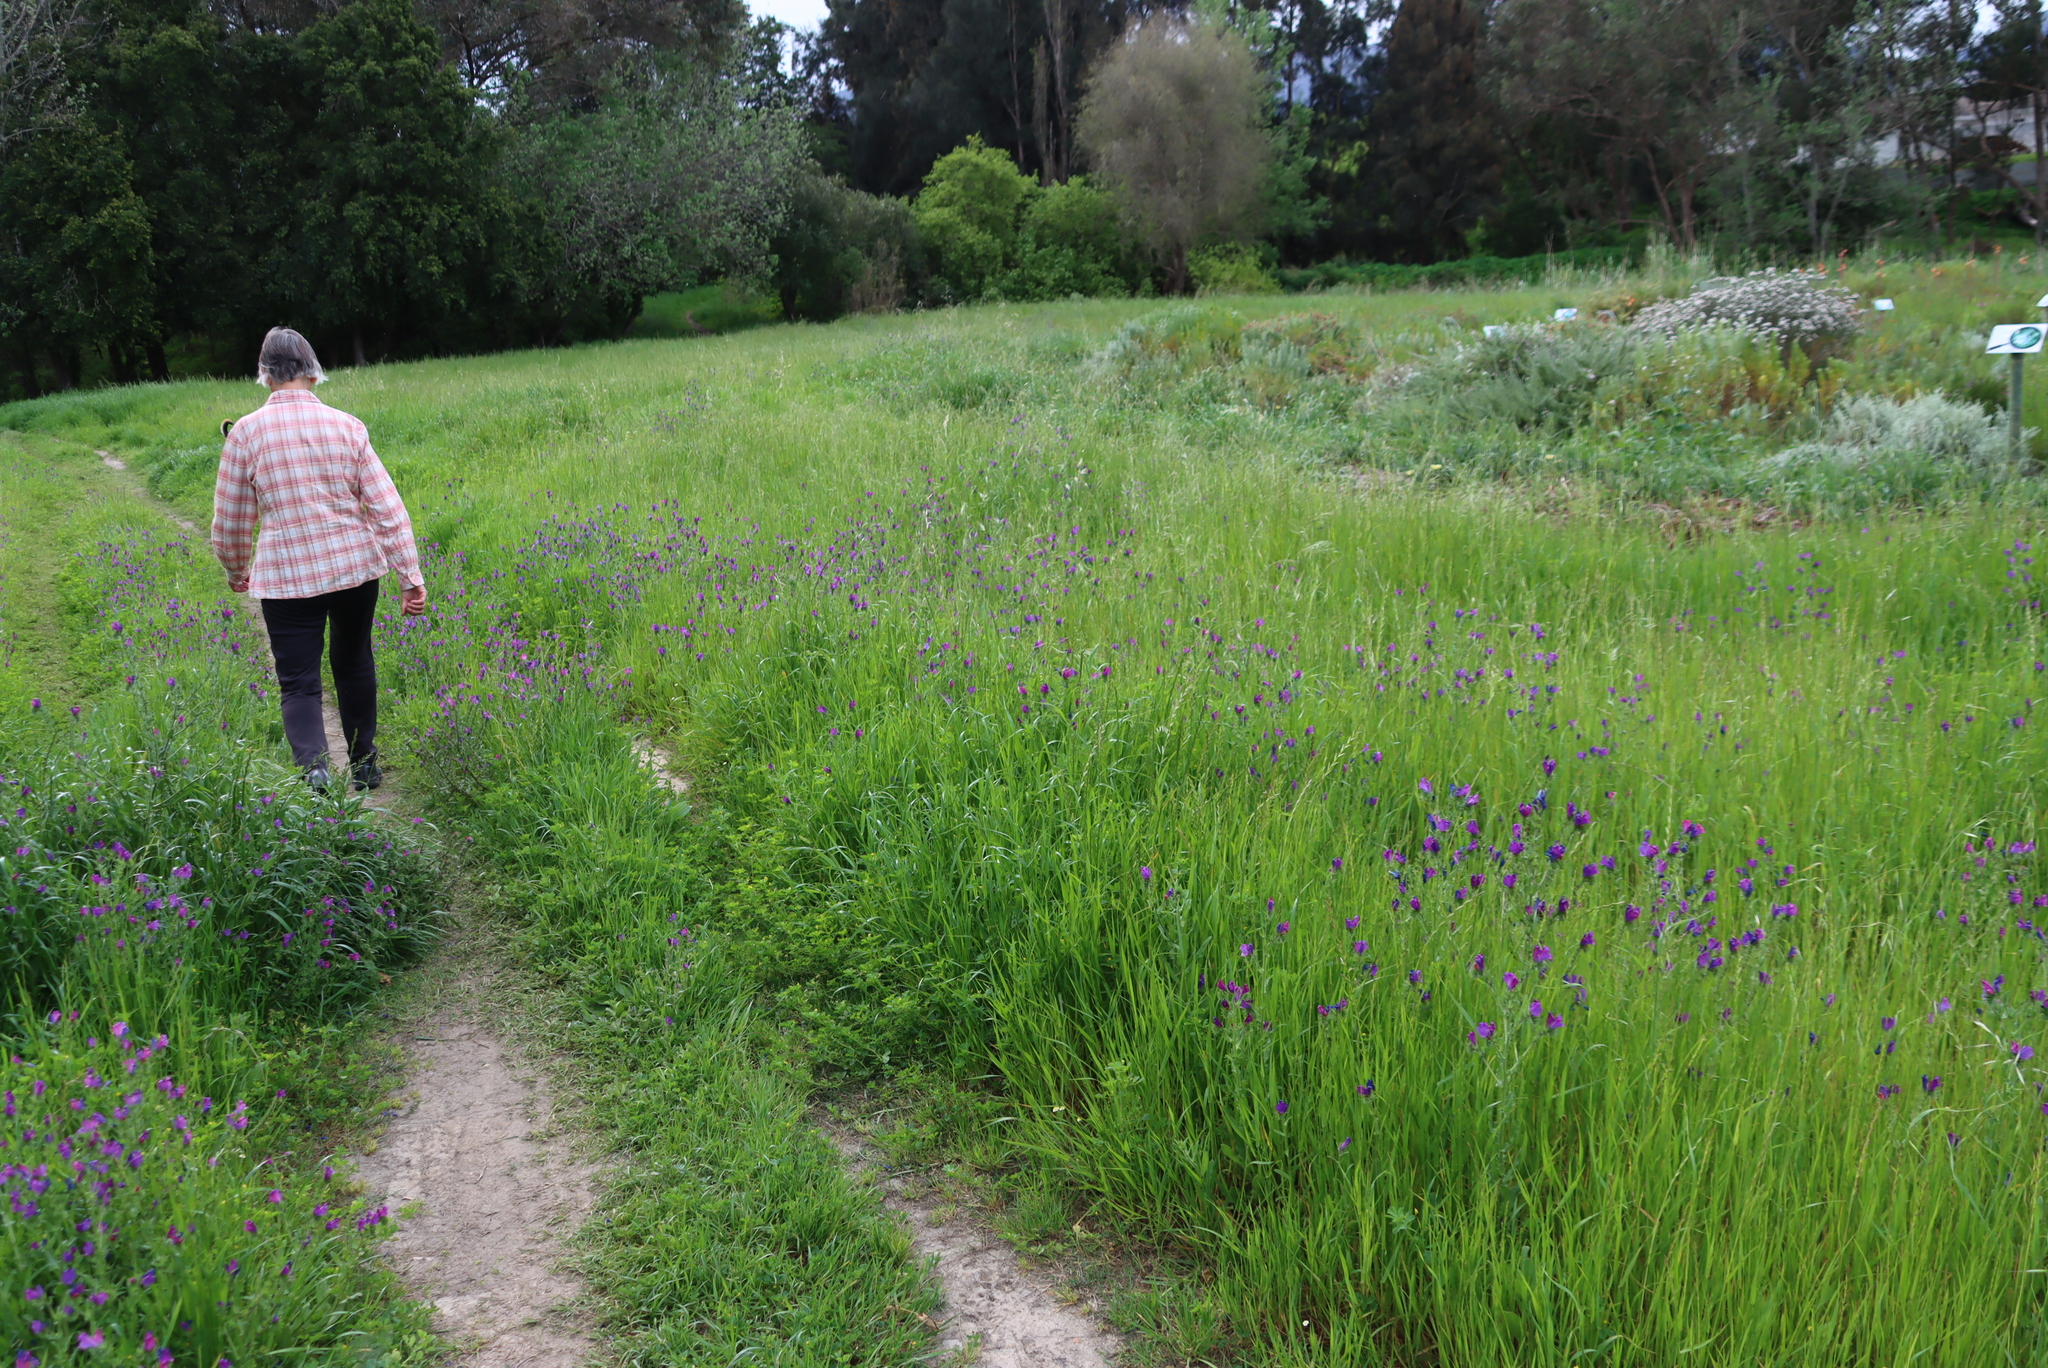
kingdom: Plantae
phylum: Tracheophyta
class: Magnoliopsida
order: Boraginales
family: Boraginaceae
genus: Echium
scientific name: Echium plantagineum
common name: Purple viper's-bugloss
